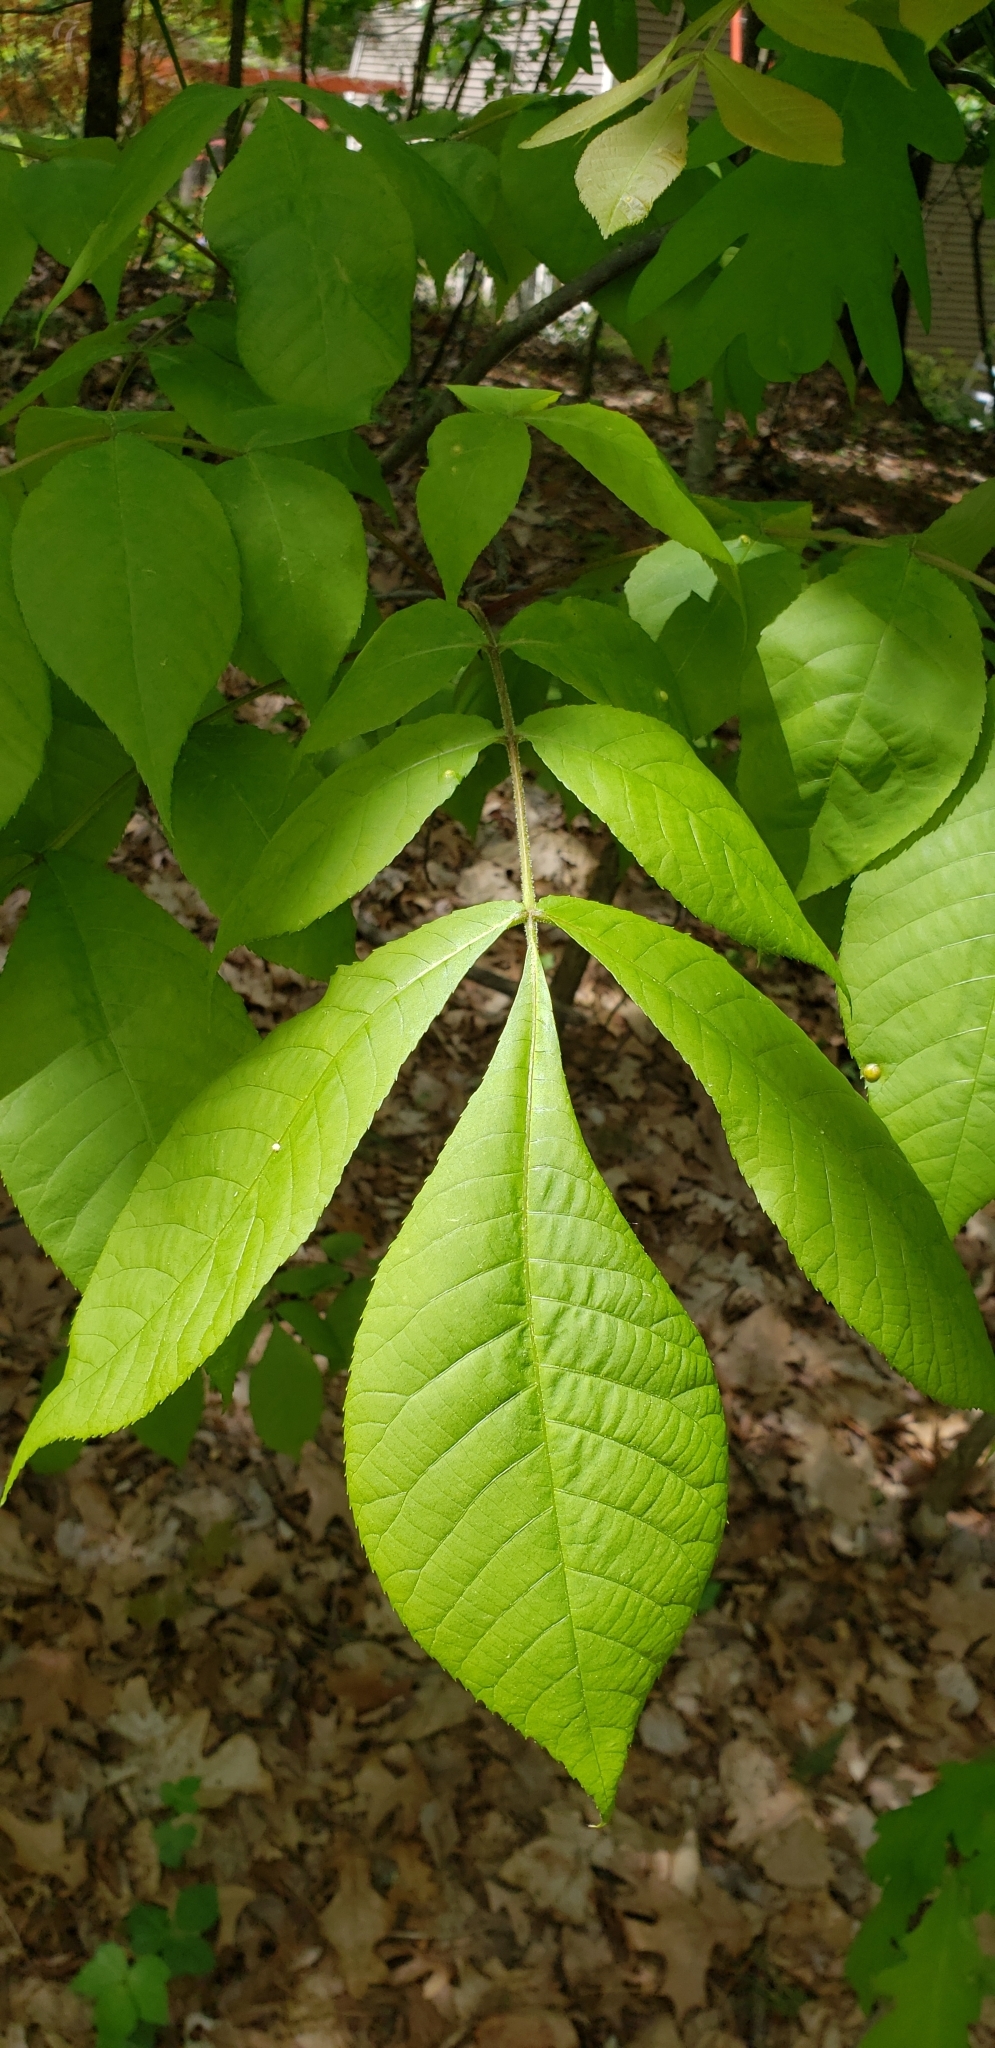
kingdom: Plantae
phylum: Tracheophyta
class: Magnoliopsida
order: Fagales
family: Juglandaceae
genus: Carya
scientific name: Carya glabra
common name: Pignut hickory
